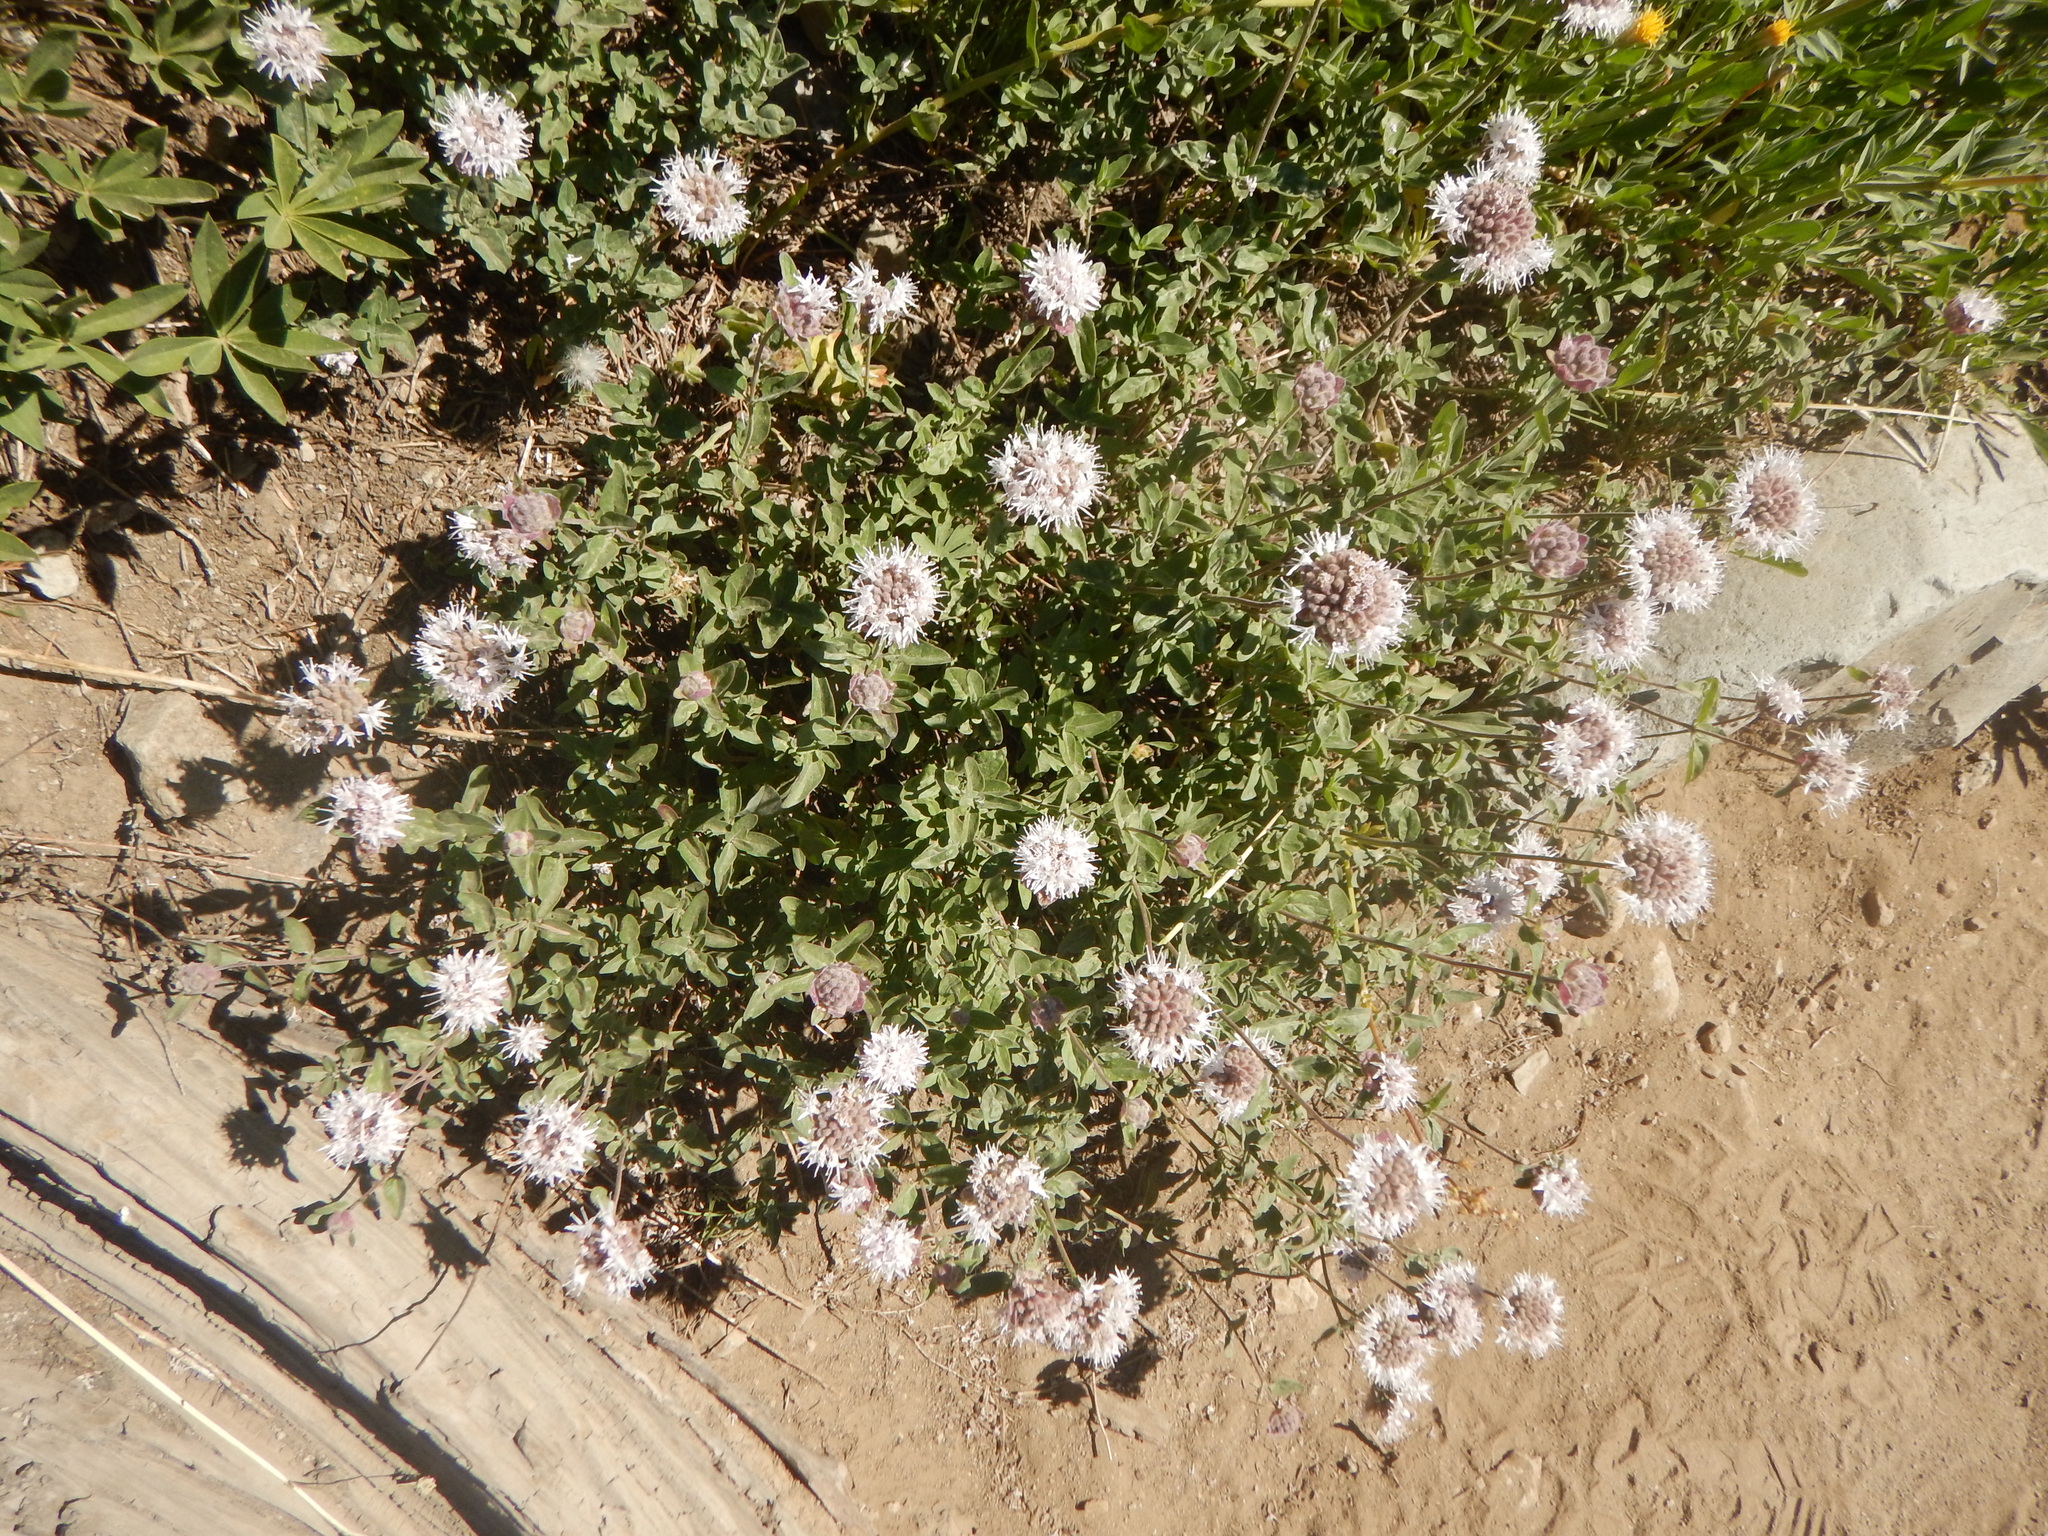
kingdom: Plantae
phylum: Tracheophyta
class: Magnoliopsida
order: Lamiales
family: Lamiaceae
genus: Monardella
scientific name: Monardella odoratissima
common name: Pacific monardella
